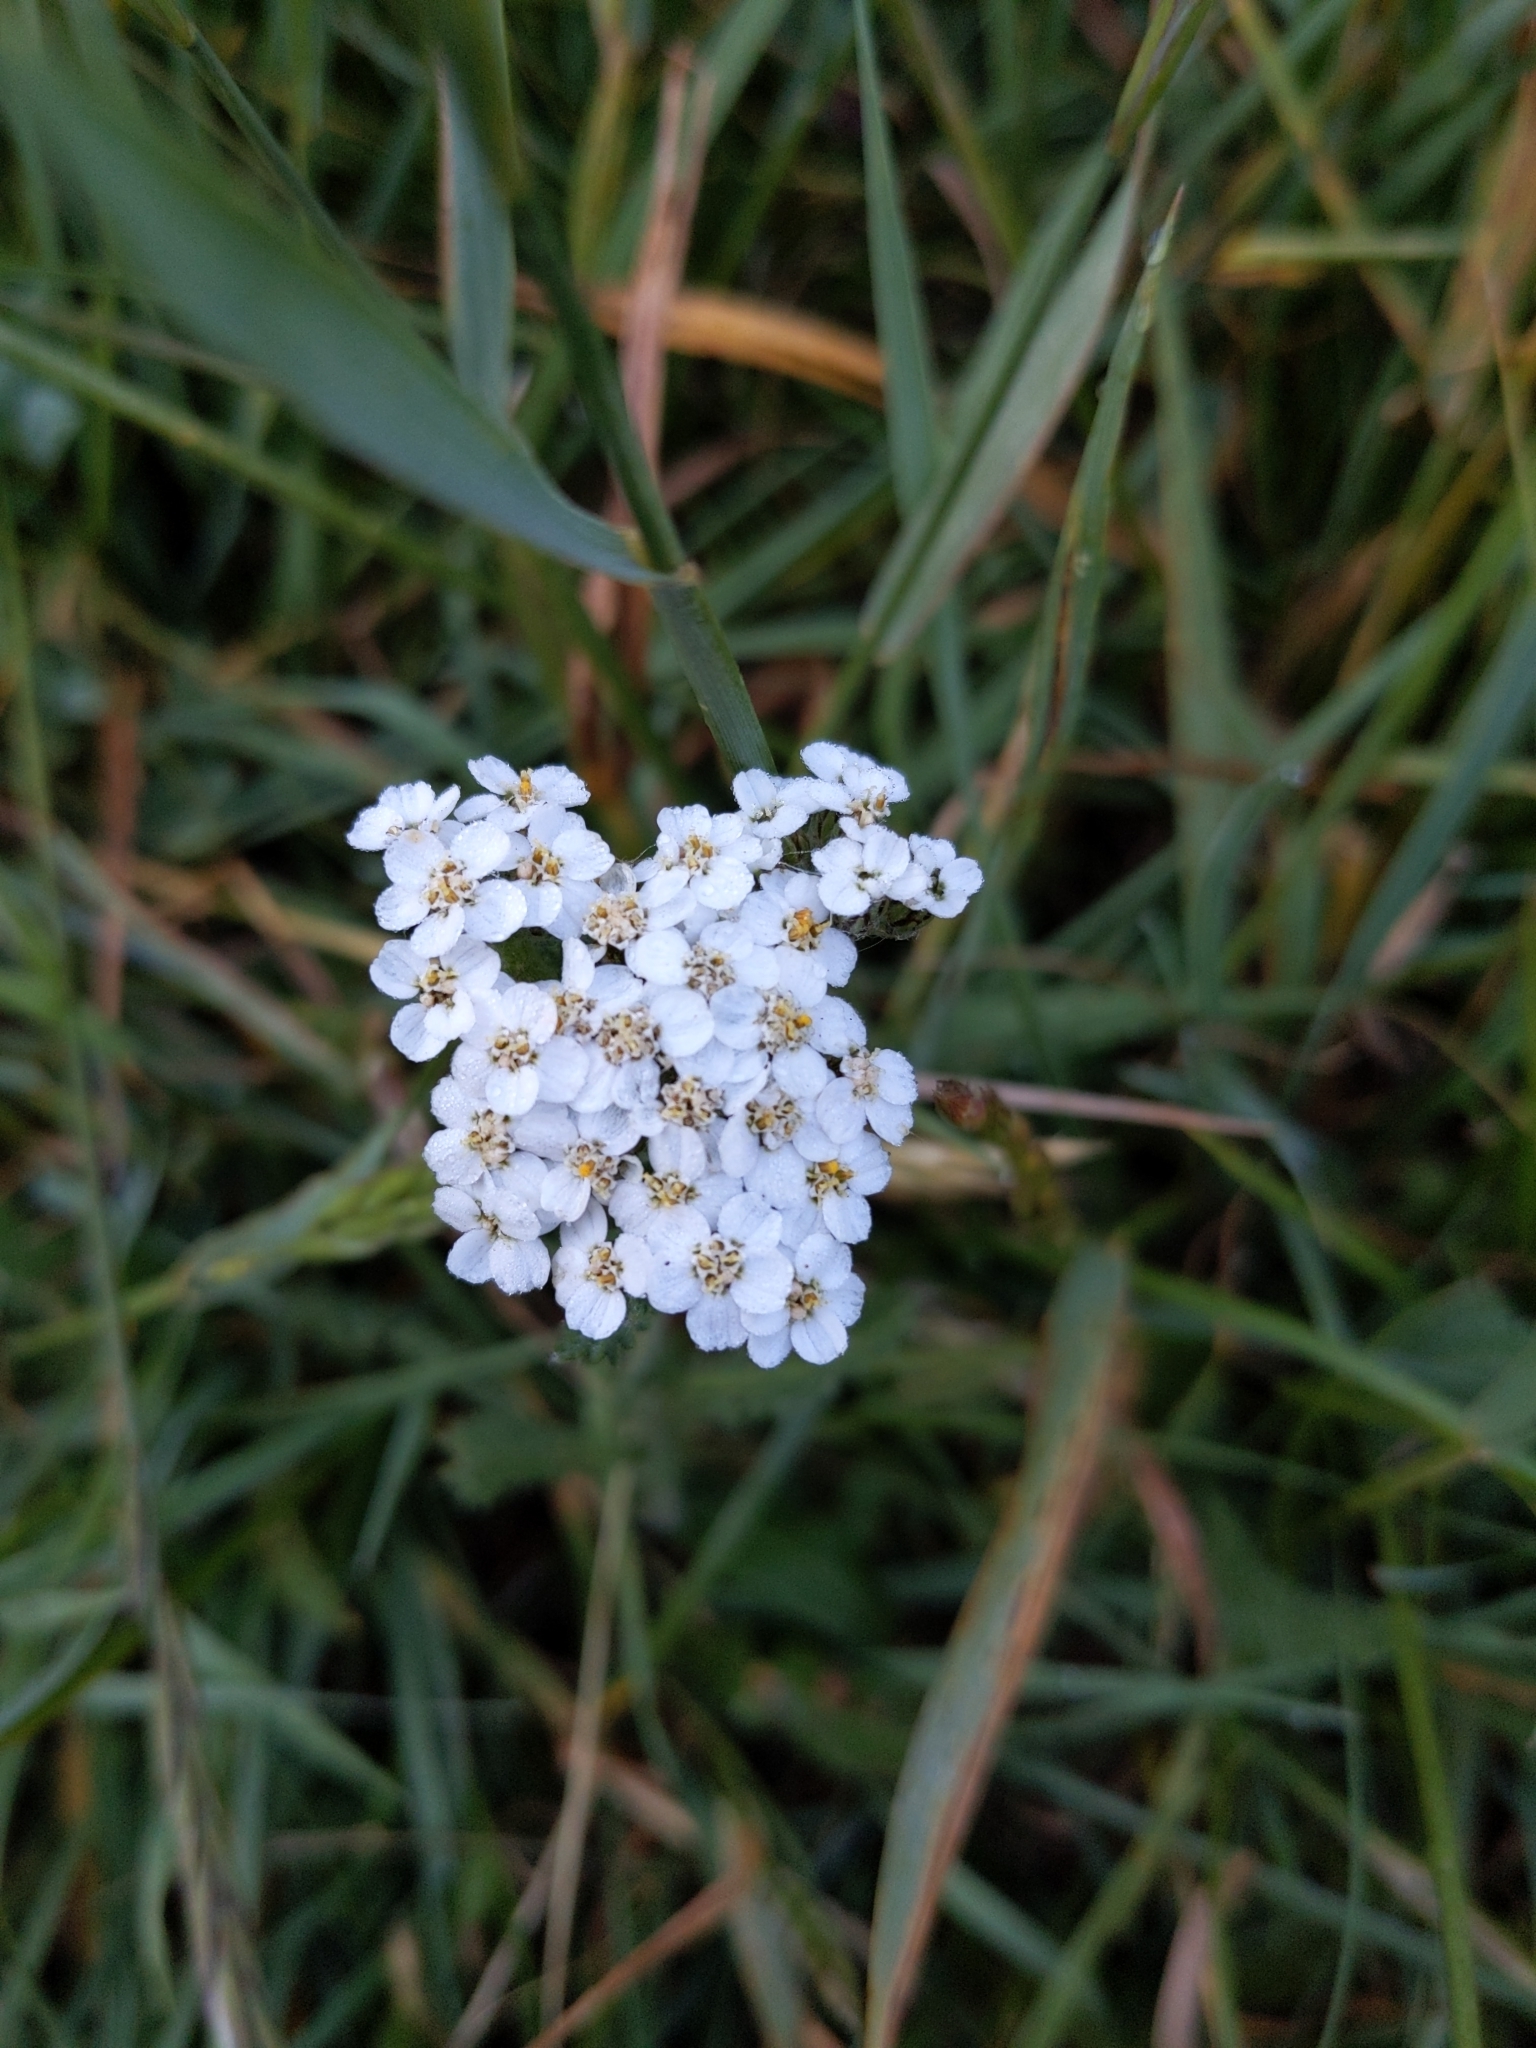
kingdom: Plantae
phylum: Tracheophyta
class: Magnoliopsida
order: Asterales
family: Asteraceae
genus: Achillea
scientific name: Achillea millefolium
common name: Yarrow
